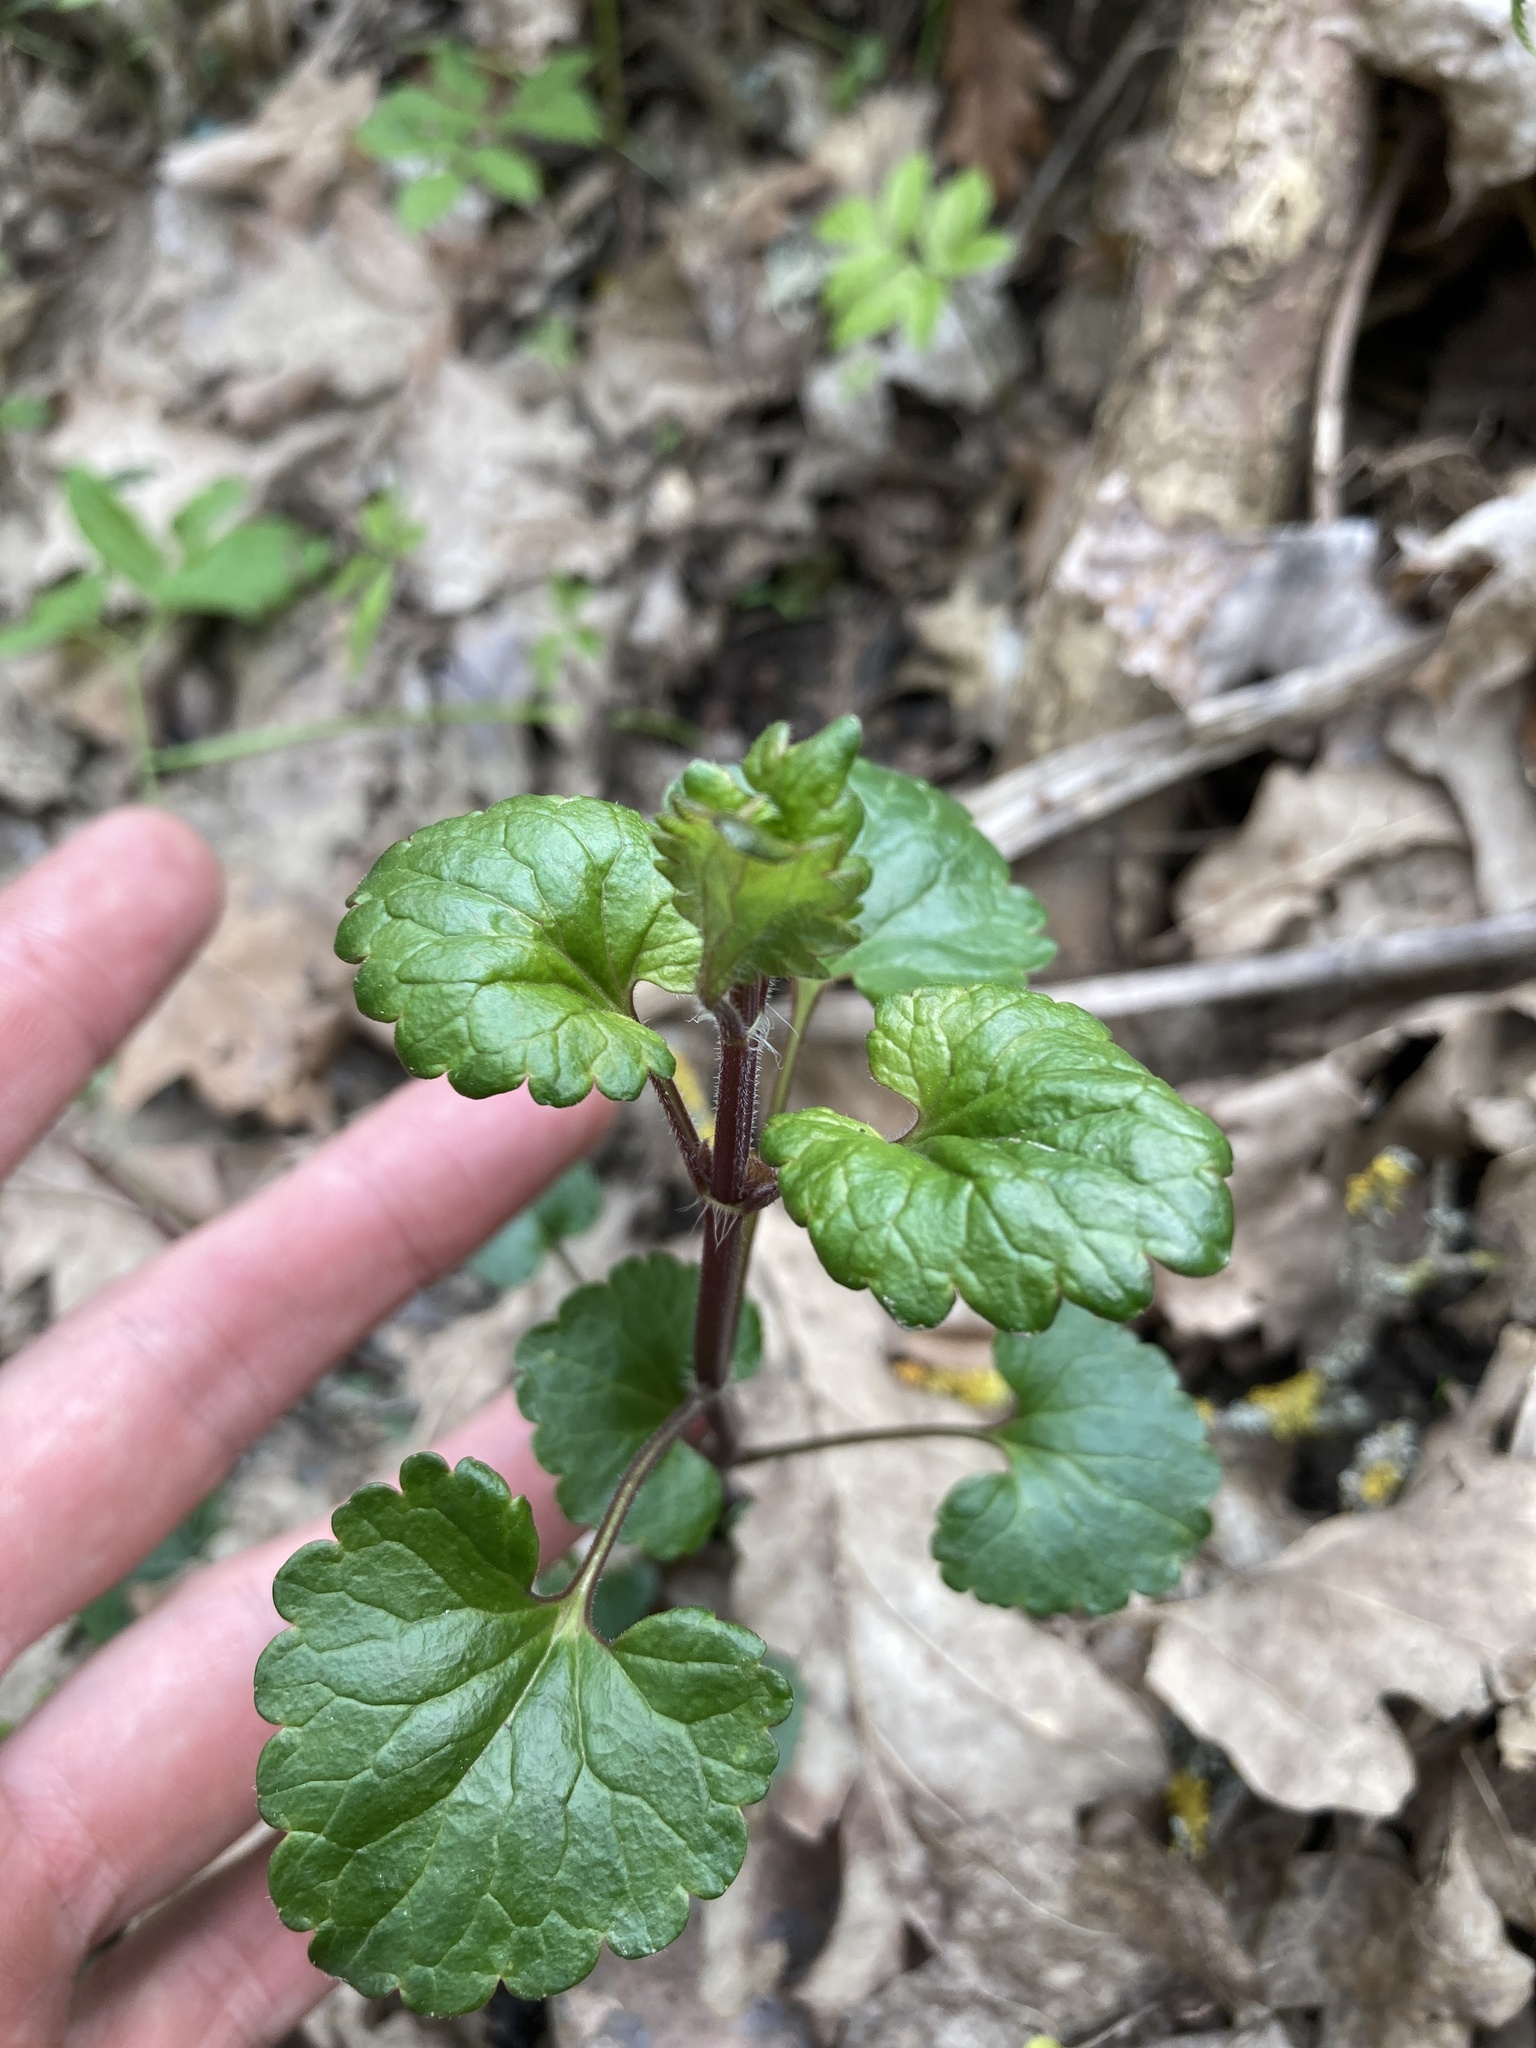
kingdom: Plantae
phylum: Tracheophyta
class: Magnoliopsida
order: Lamiales
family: Lamiaceae
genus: Glechoma
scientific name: Glechoma hederacea
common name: Ground ivy
